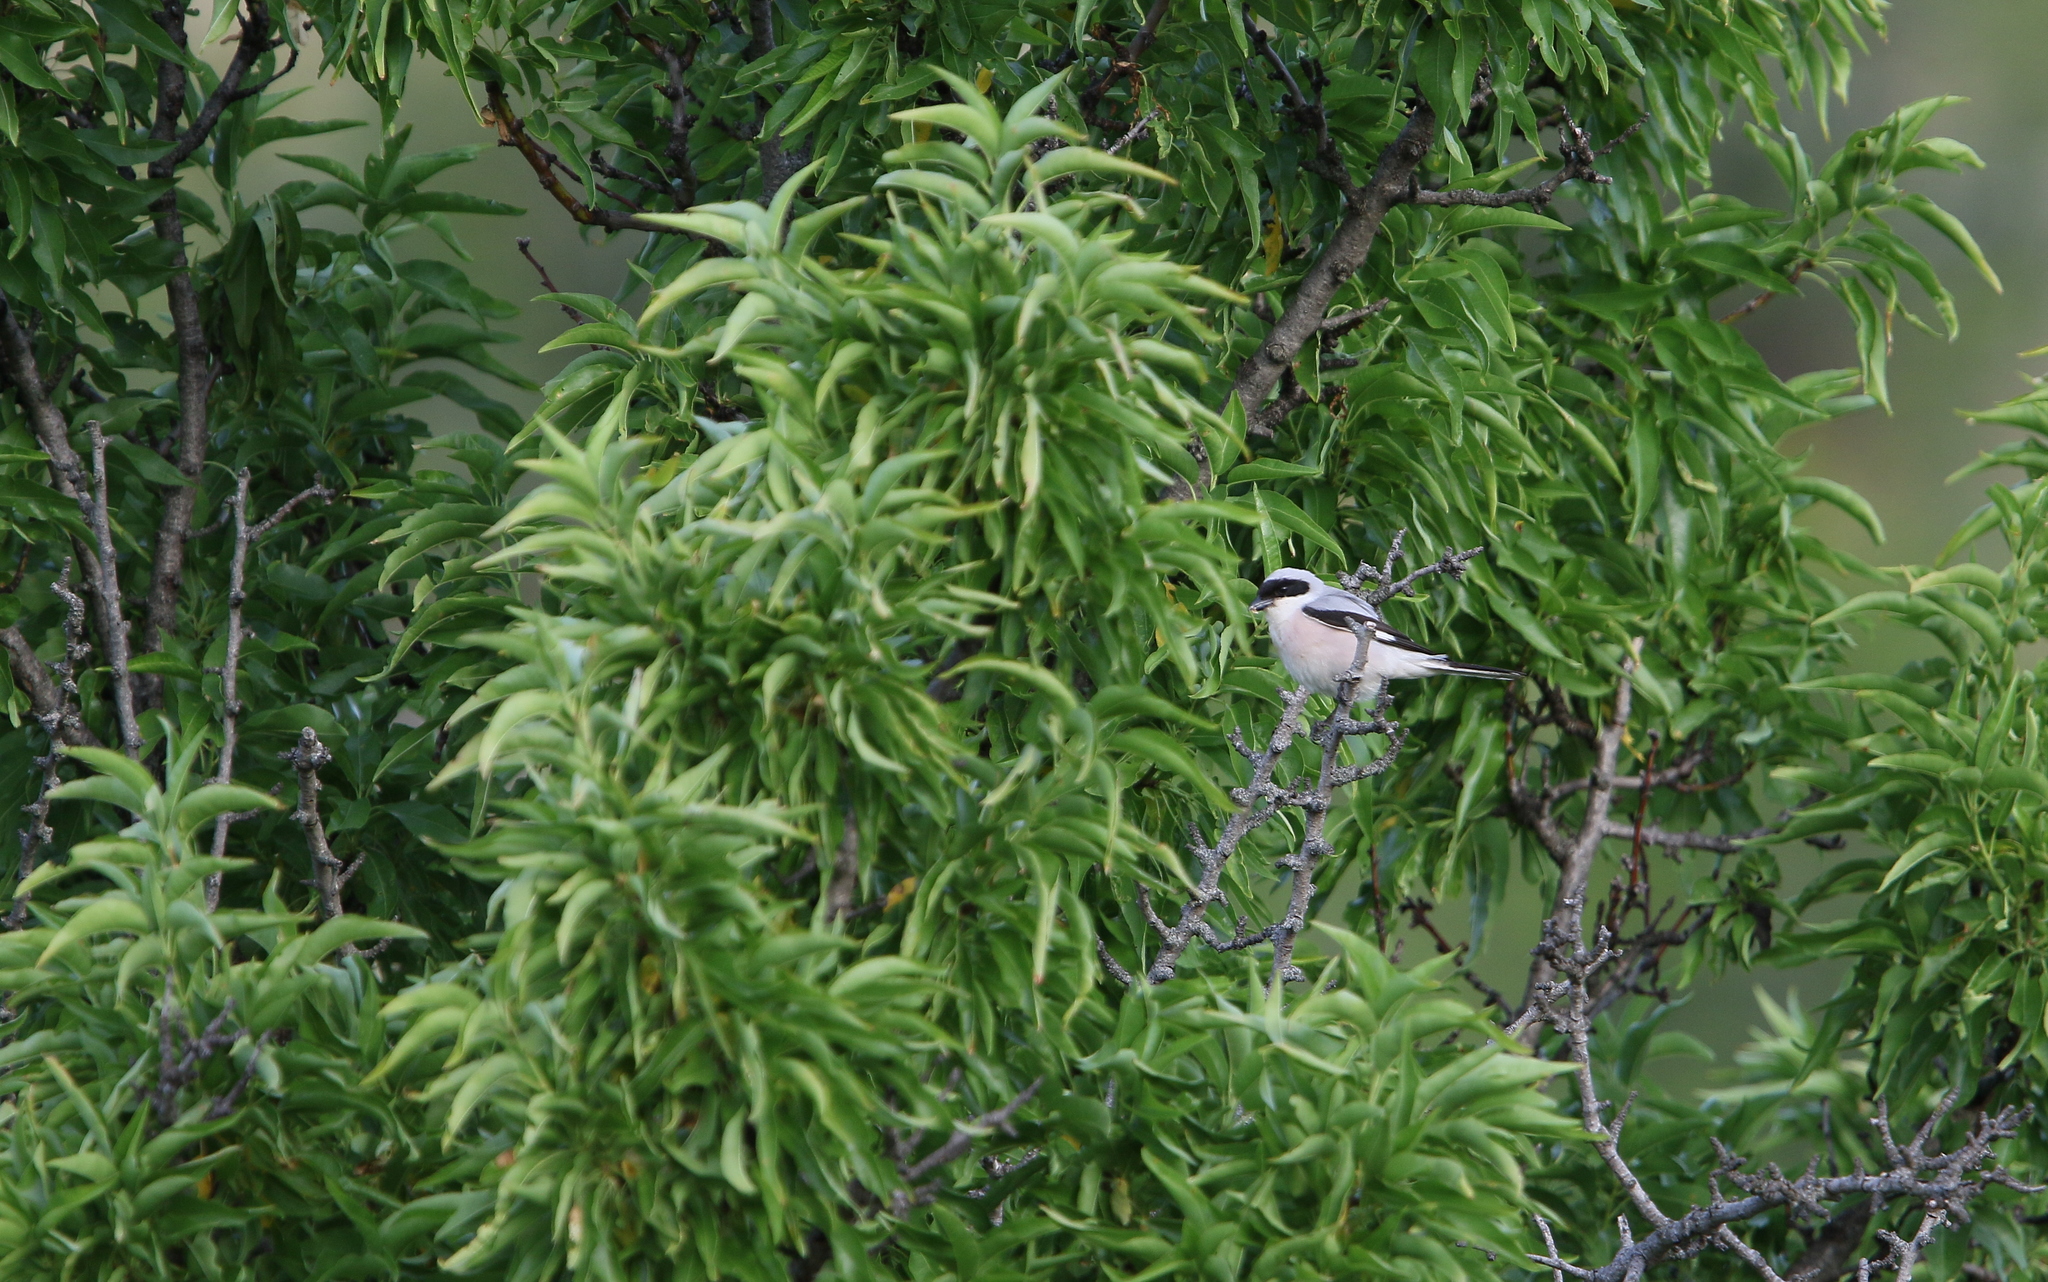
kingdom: Animalia
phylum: Chordata
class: Aves
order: Passeriformes
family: Laniidae
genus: Lanius
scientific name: Lanius minor
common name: Lesser grey shrike
